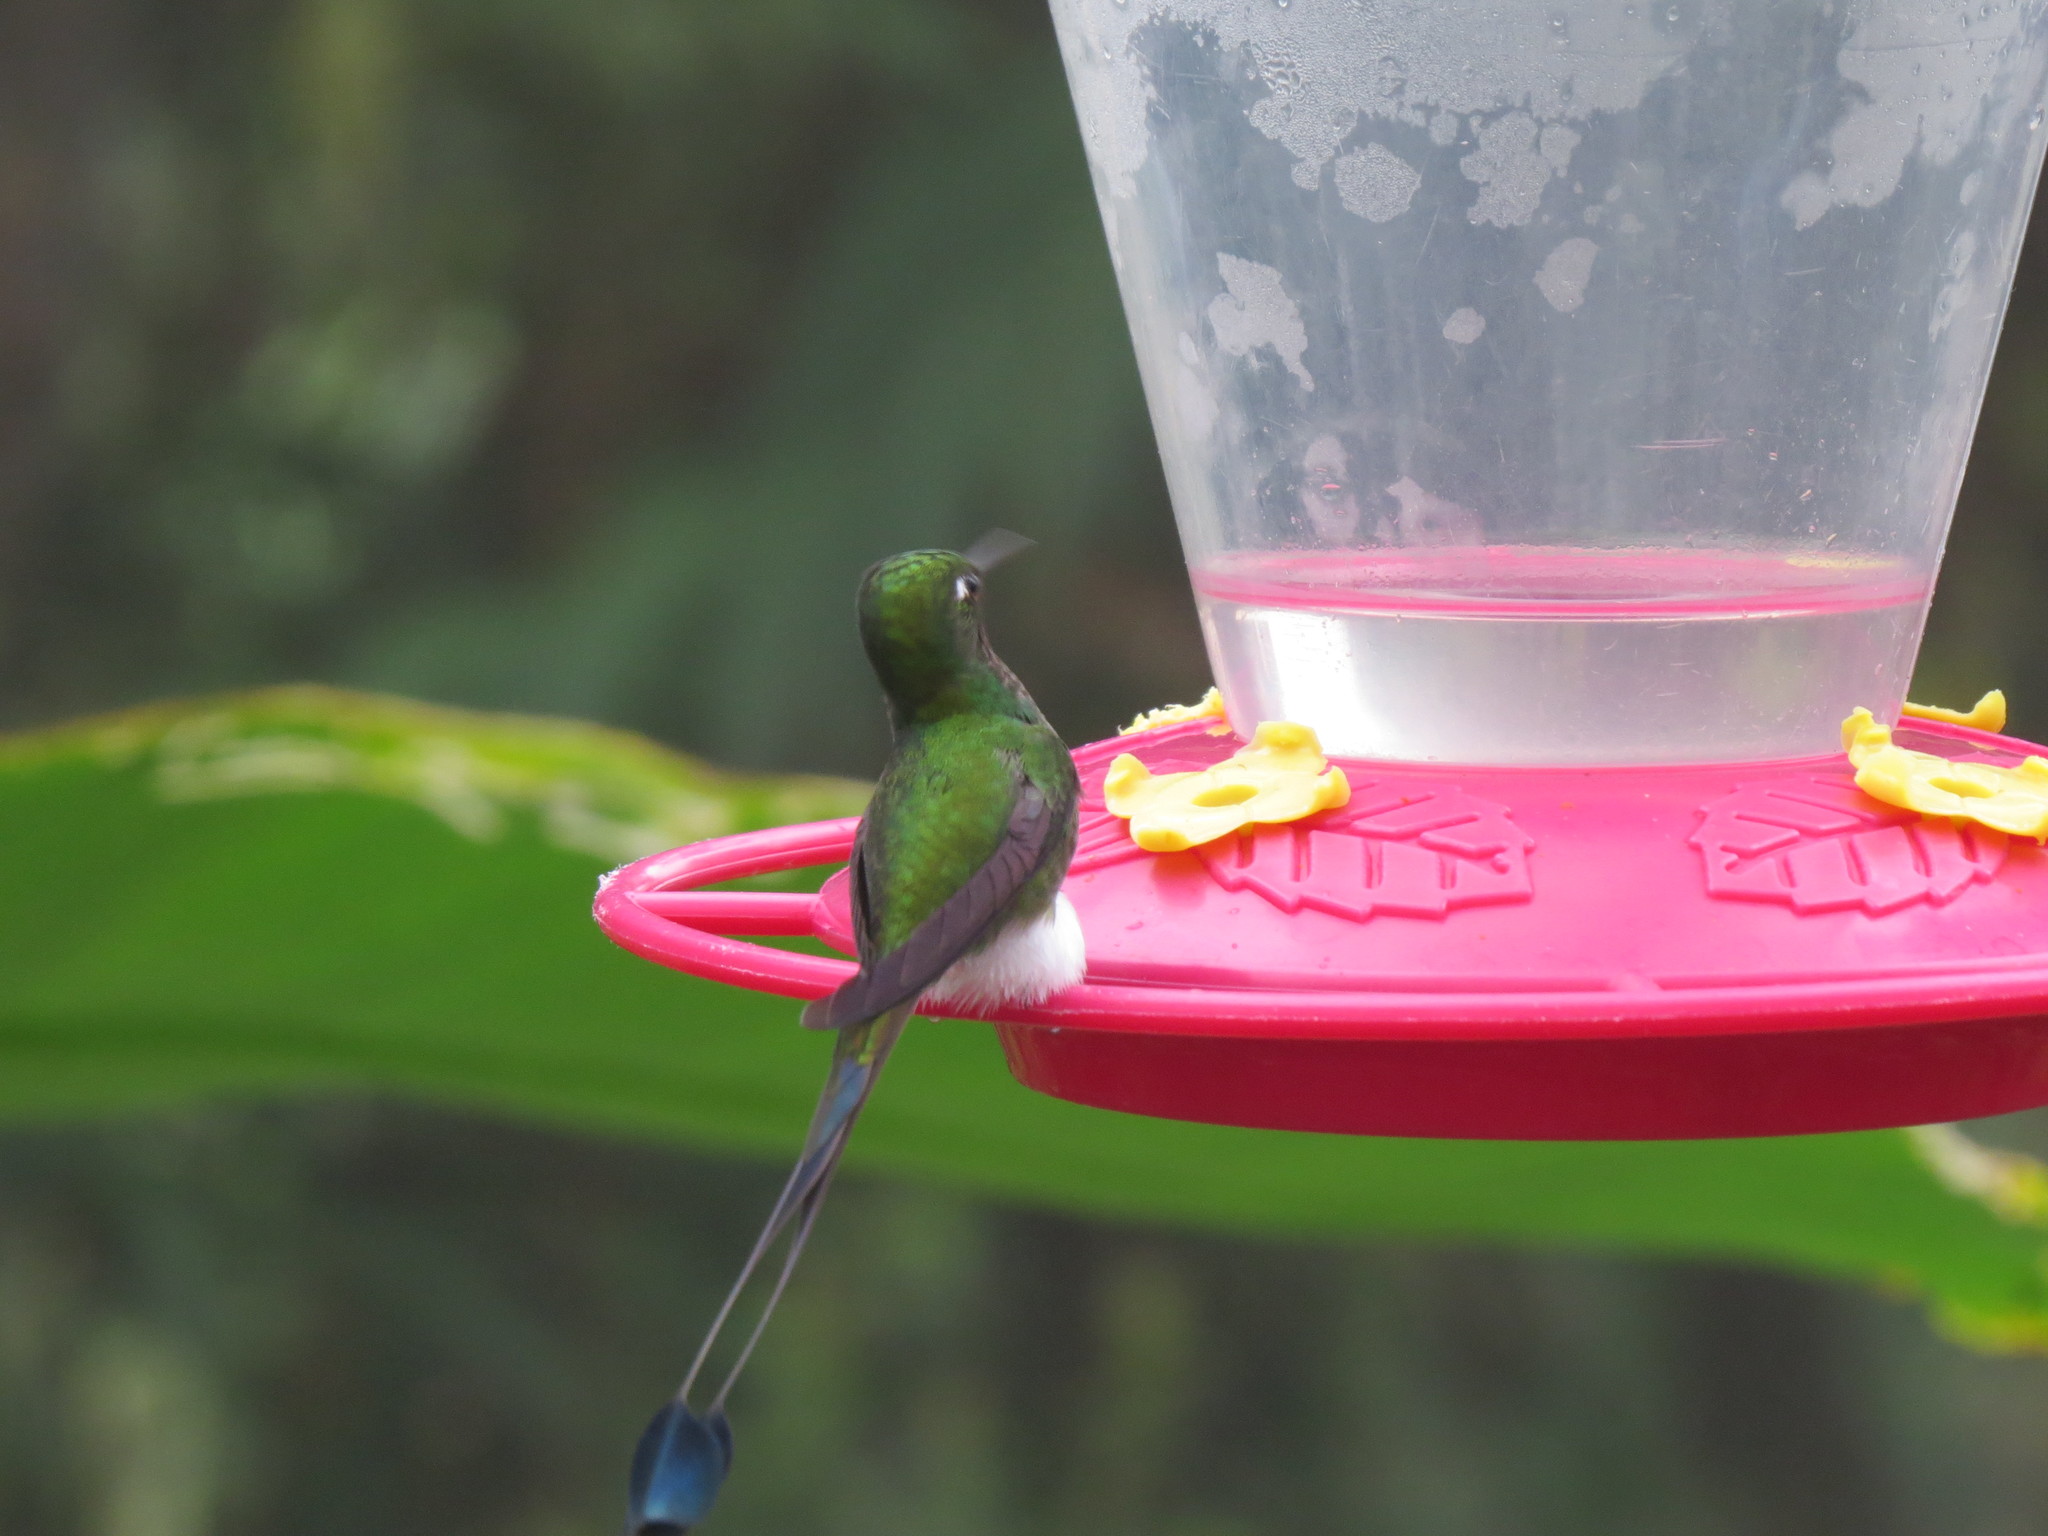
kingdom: Animalia
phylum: Chordata
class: Aves
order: Apodiformes
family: Trochilidae
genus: Ocreatus
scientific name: Ocreatus underwoodii
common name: Booted racket-tail
